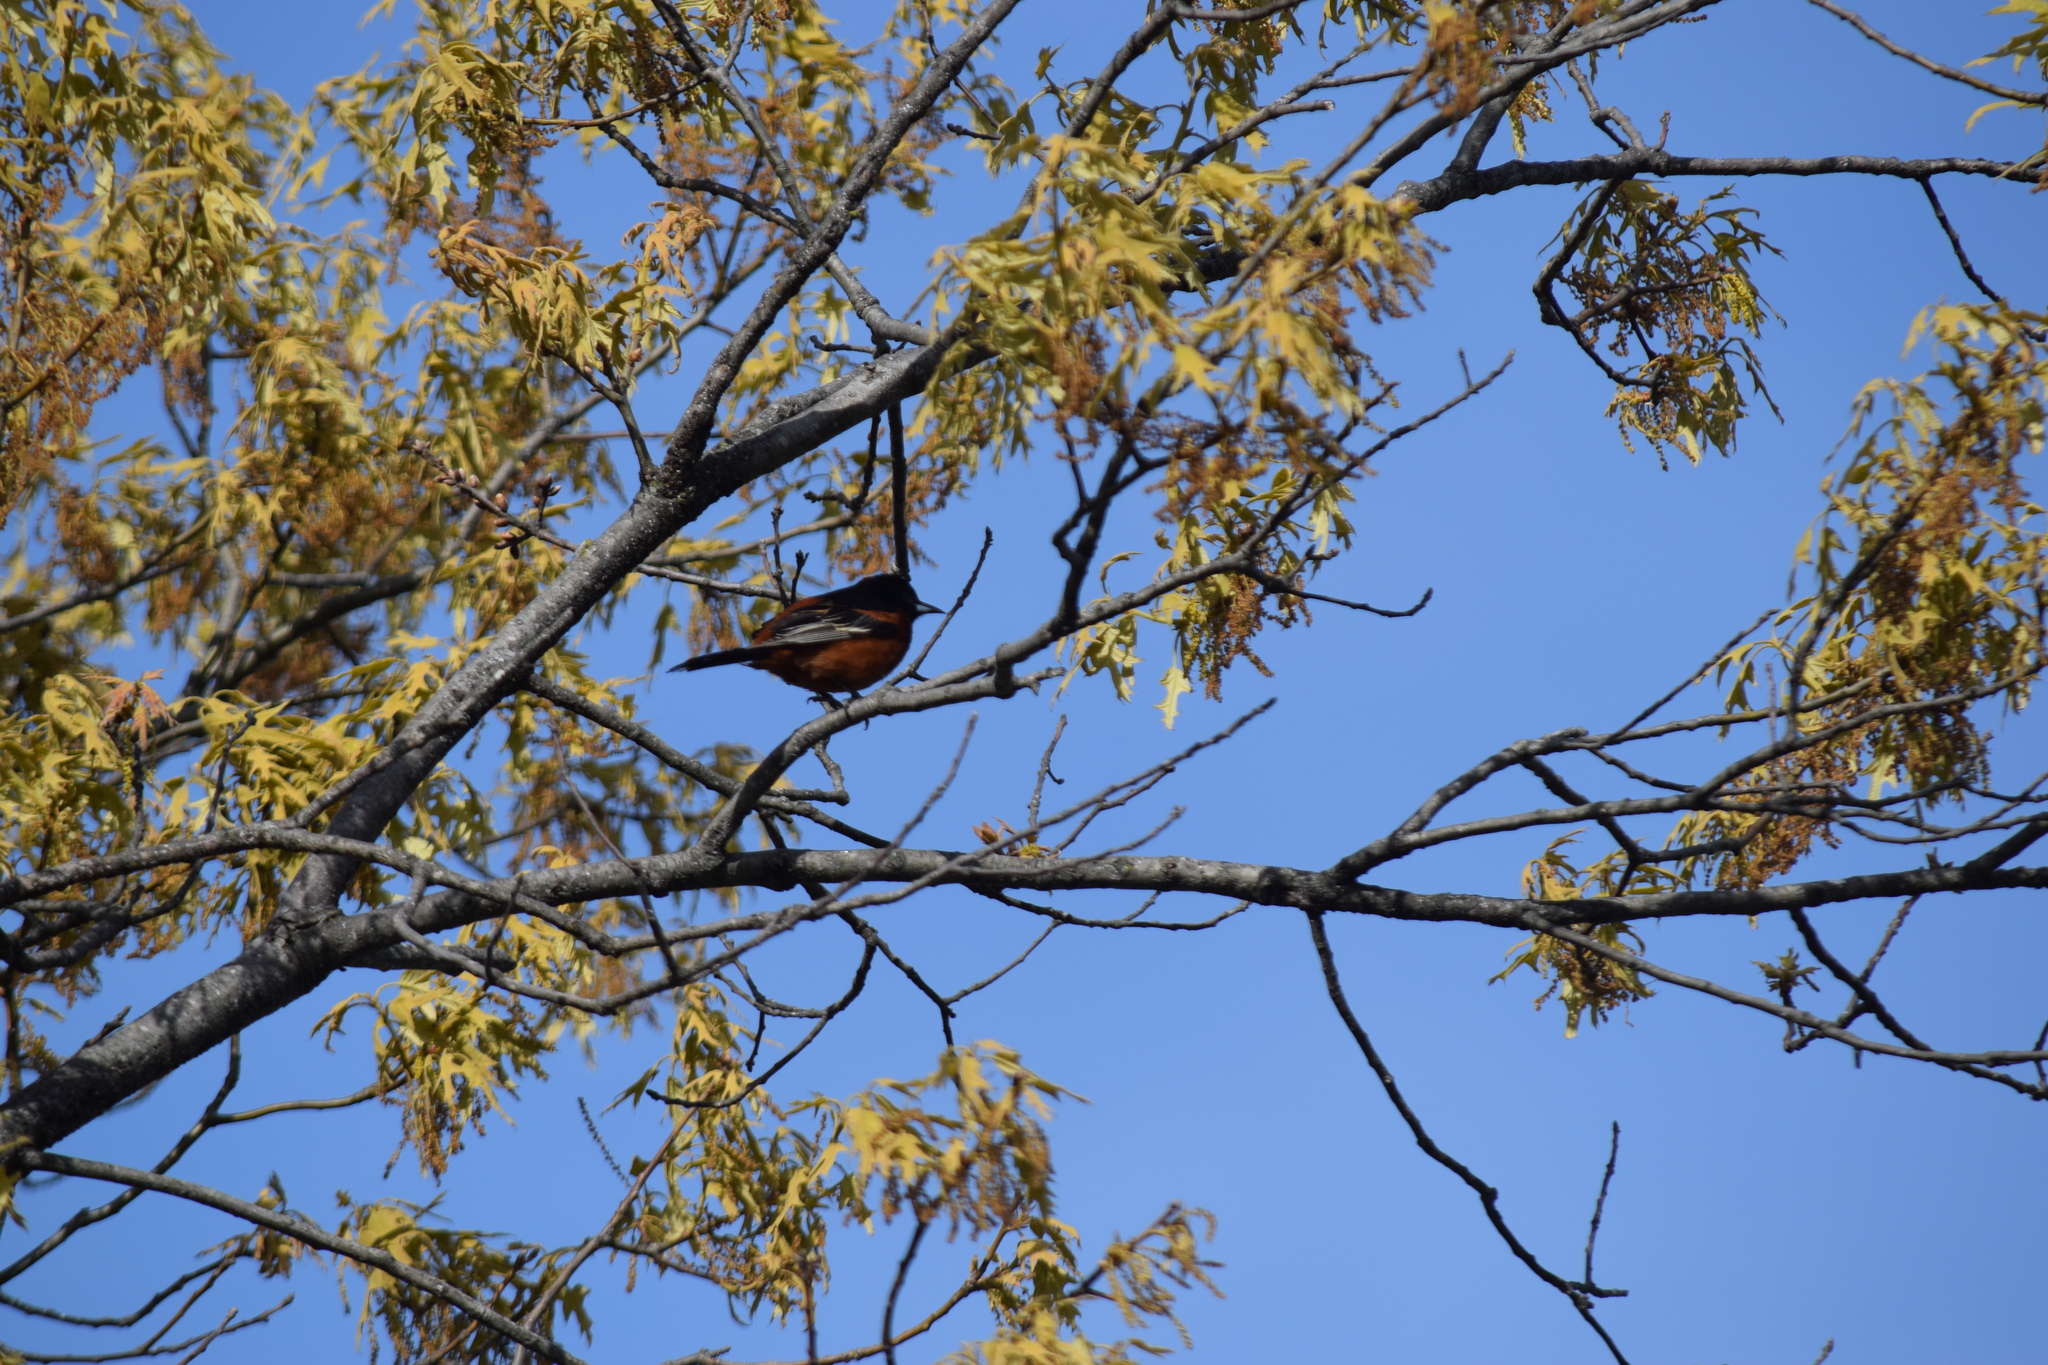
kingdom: Animalia
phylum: Chordata
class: Aves
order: Passeriformes
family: Icteridae
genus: Icterus
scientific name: Icterus spurius
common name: Orchard oriole
